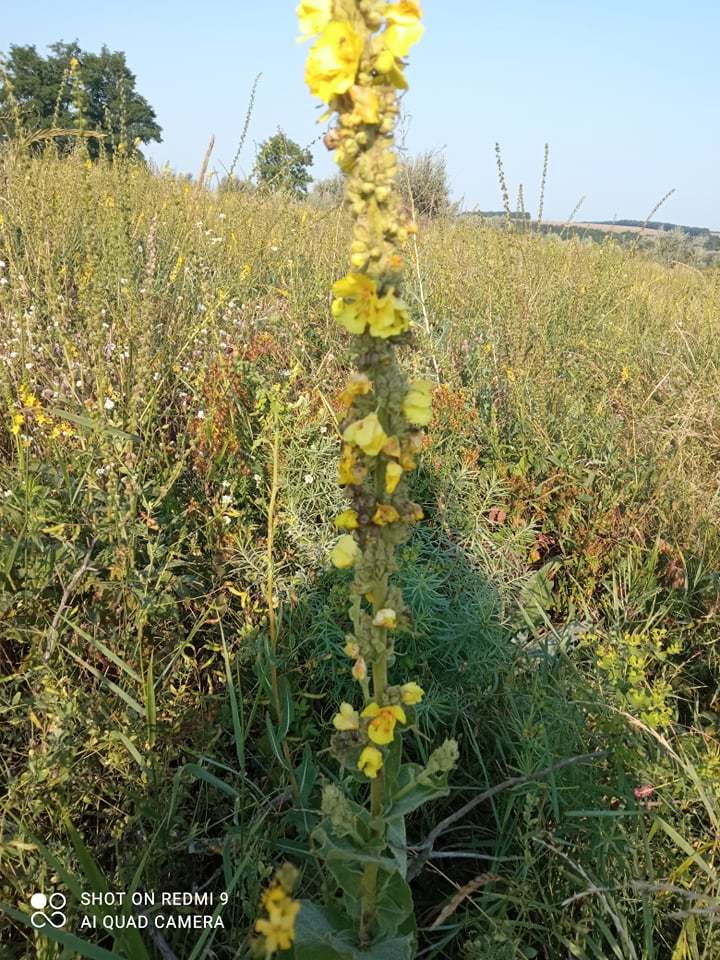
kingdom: Plantae
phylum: Tracheophyta
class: Magnoliopsida
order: Lamiales
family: Scrophulariaceae
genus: Verbascum
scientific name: Verbascum phlomoides
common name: Orange mullein
